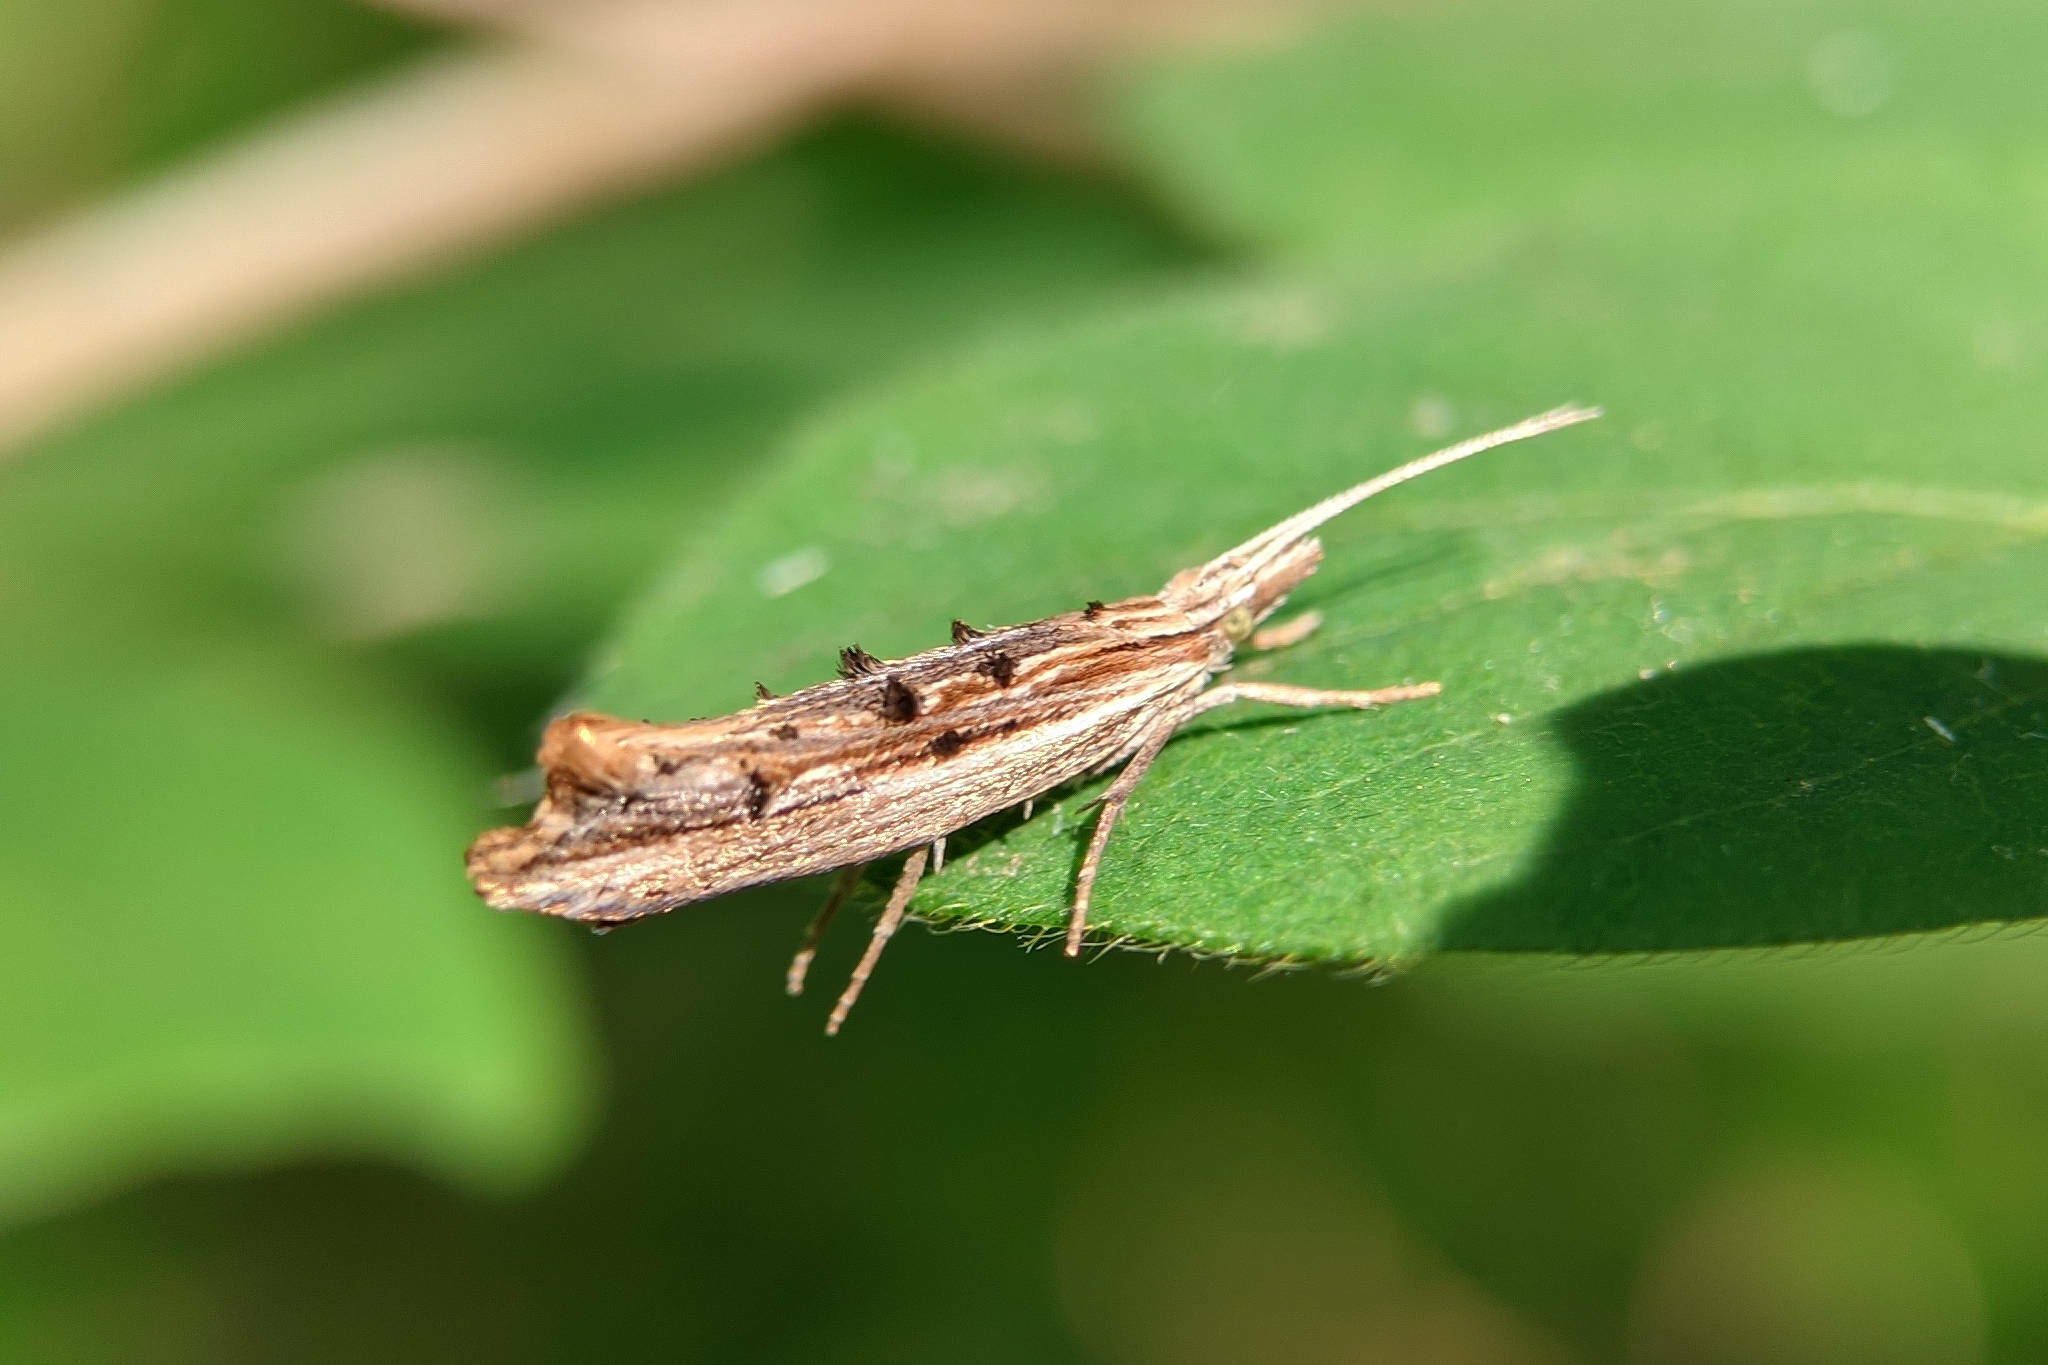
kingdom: Animalia
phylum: Arthropoda
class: Insecta
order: Lepidoptera
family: Ypsolophidae
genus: Ypsolopha
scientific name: Ypsolopha scabrella
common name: Wainscot smudge
